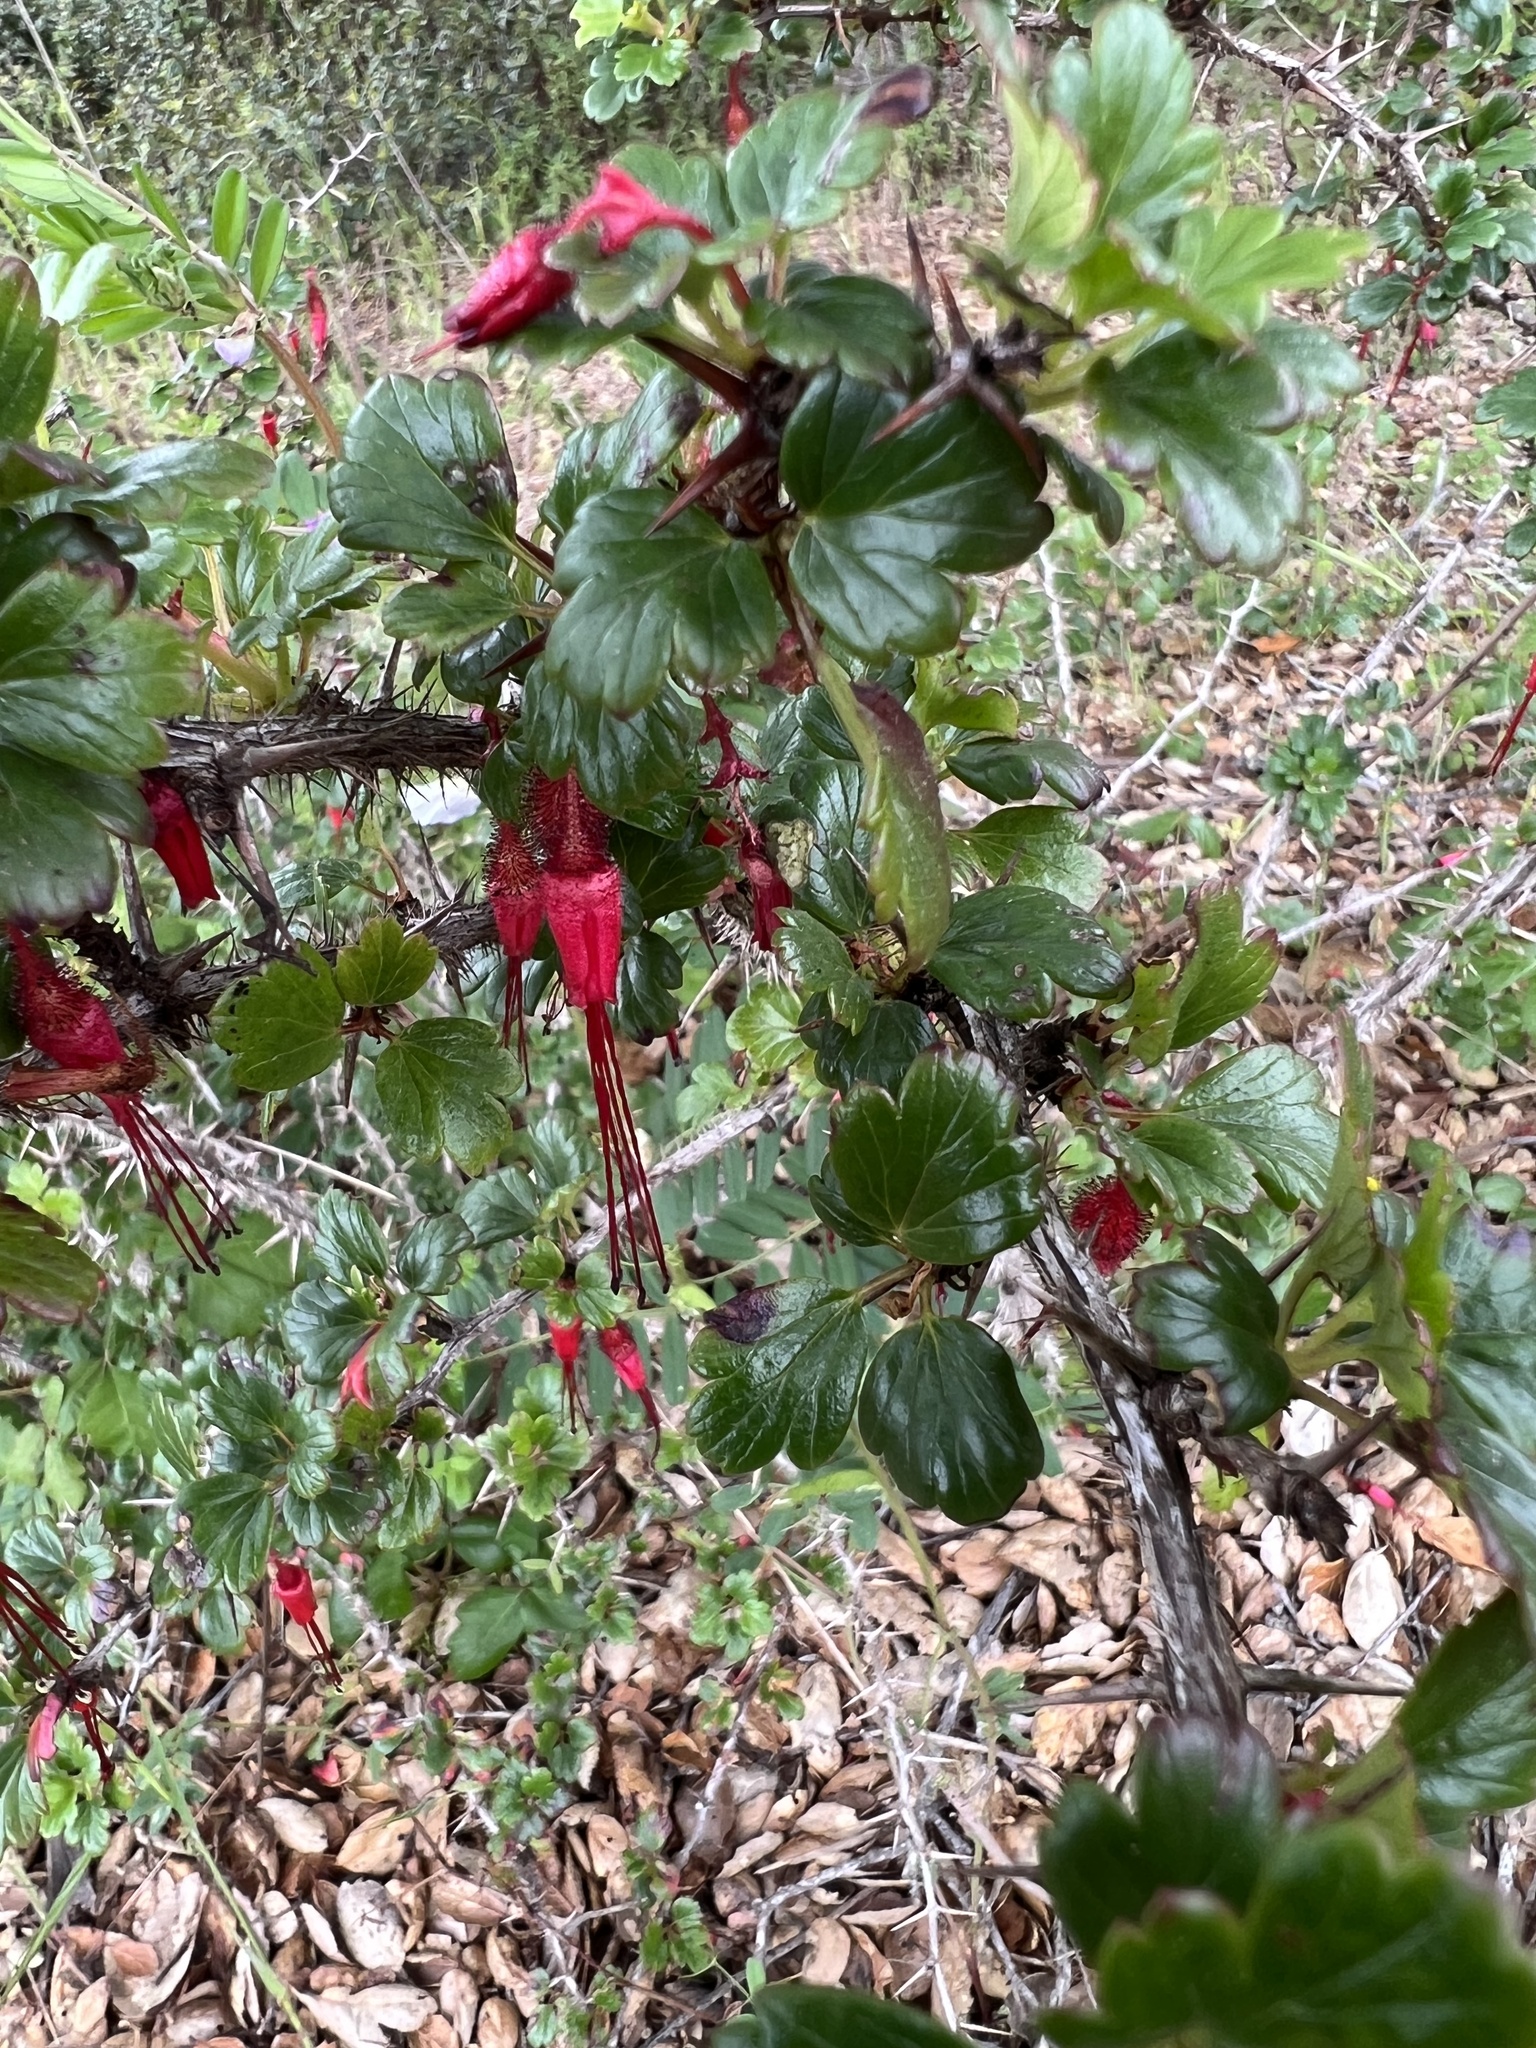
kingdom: Plantae
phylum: Tracheophyta
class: Magnoliopsida
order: Saxifragales
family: Grossulariaceae
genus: Ribes
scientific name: Ribes speciosum
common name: Fuchsia-flower gooseberry
